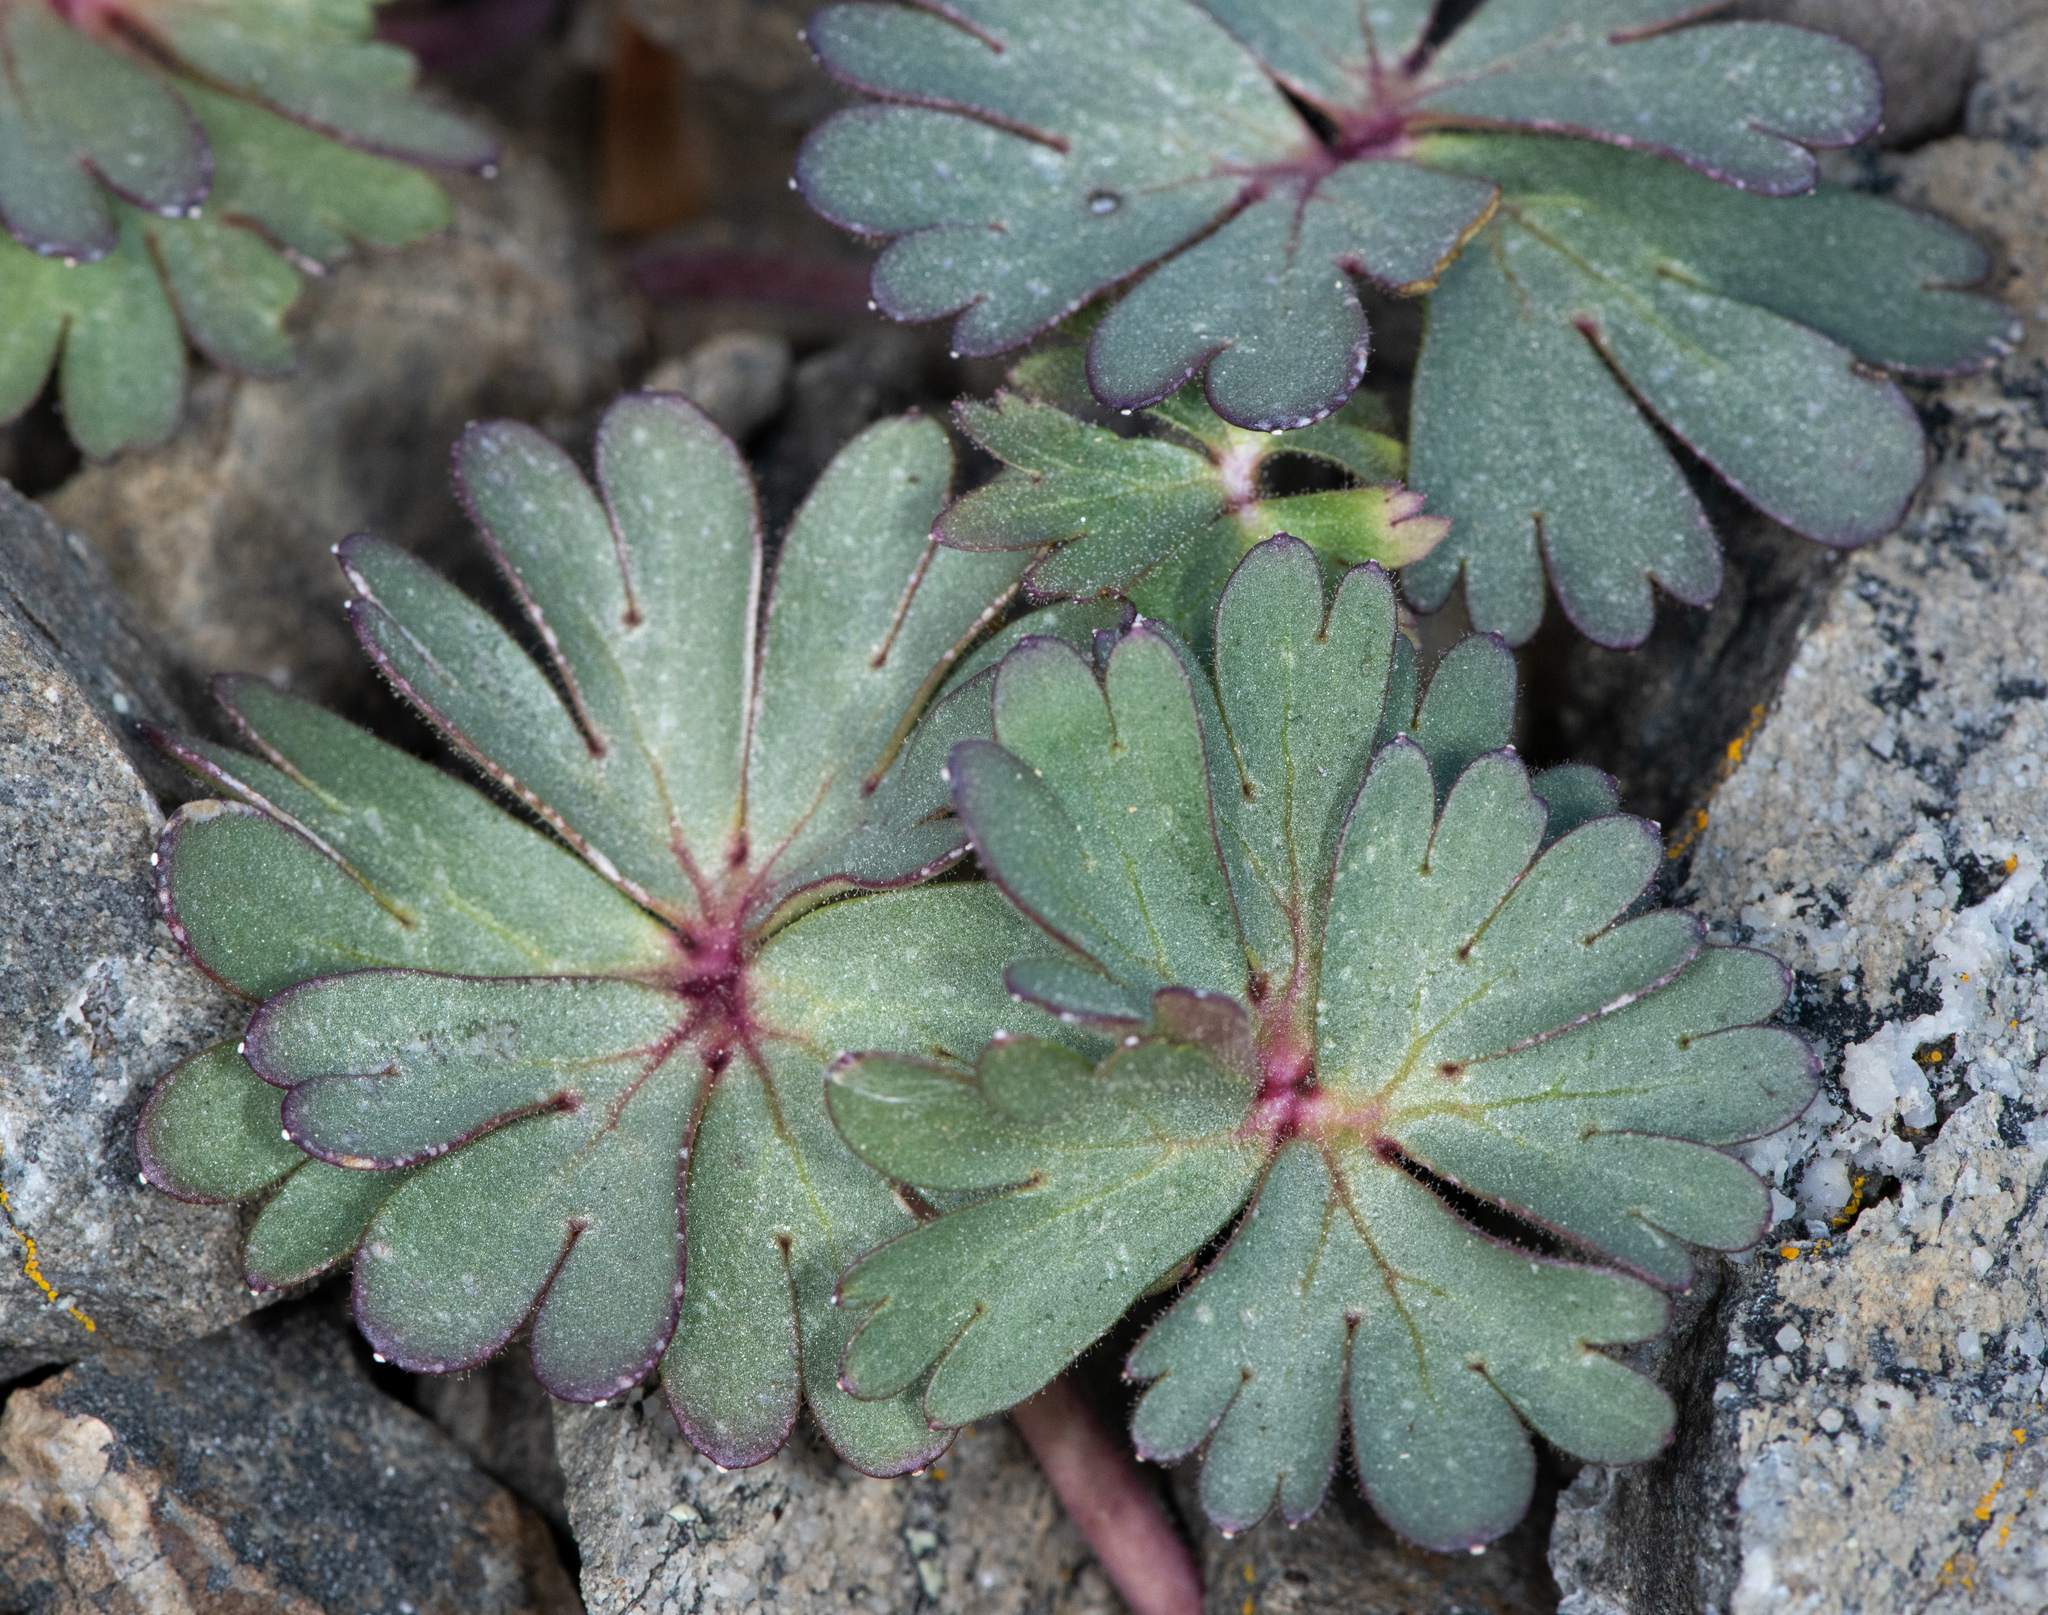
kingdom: Plantae
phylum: Tracheophyta
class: Magnoliopsida
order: Ranunculales
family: Ranunculaceae
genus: Delphinium
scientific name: Delphinium antoninum
